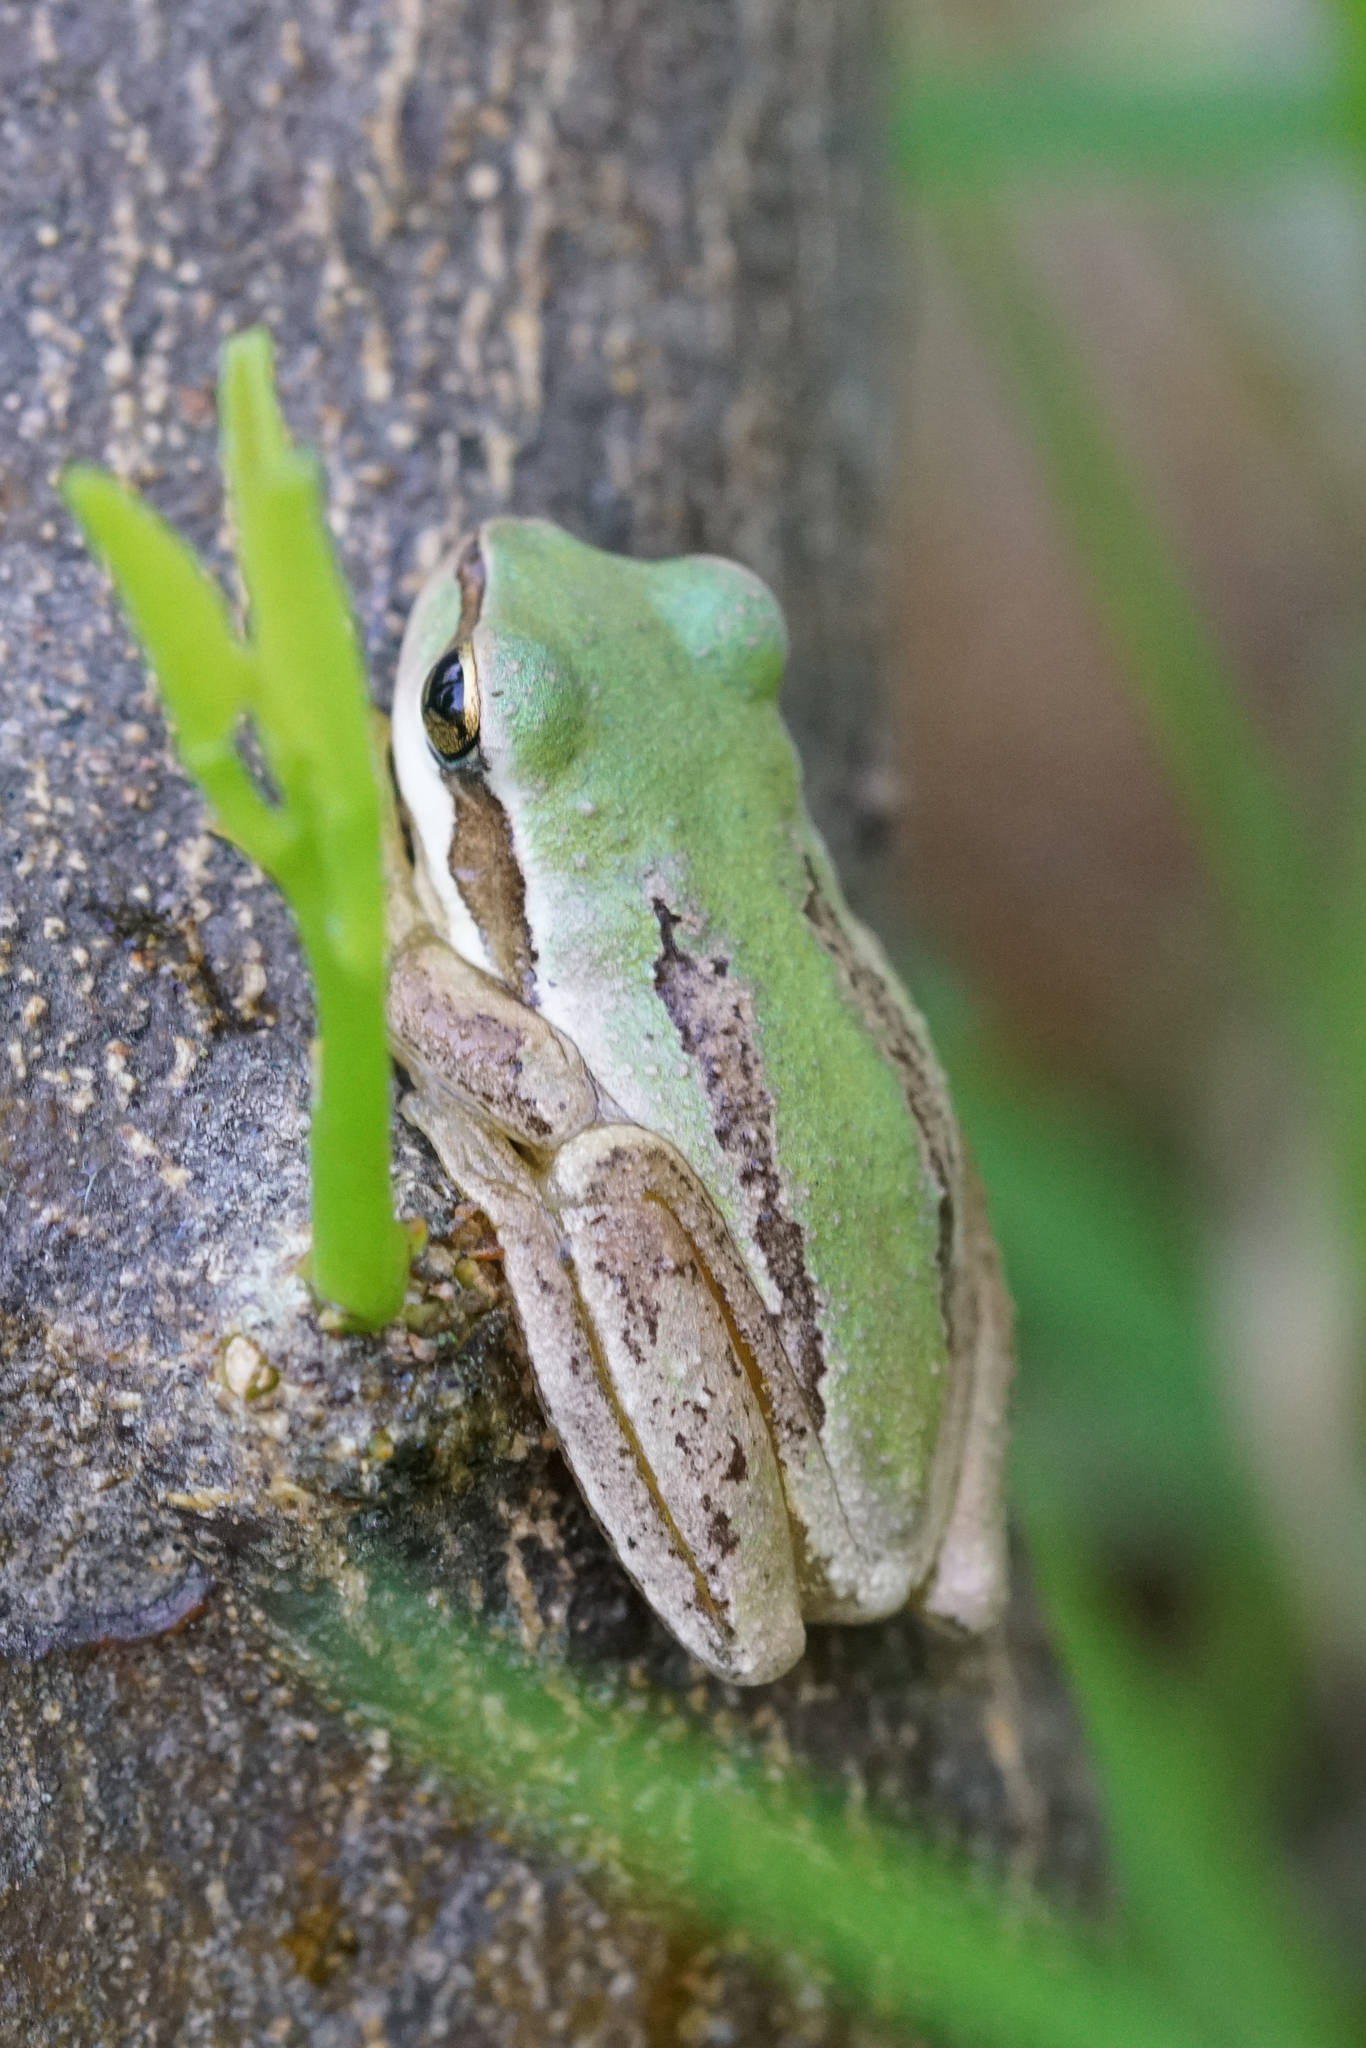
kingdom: Animalia
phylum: Chordata
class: Amphibia
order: Anura
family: Pelodryadidae
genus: Litoria
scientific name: Litoria ewingii
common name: Southern brown tree frog
